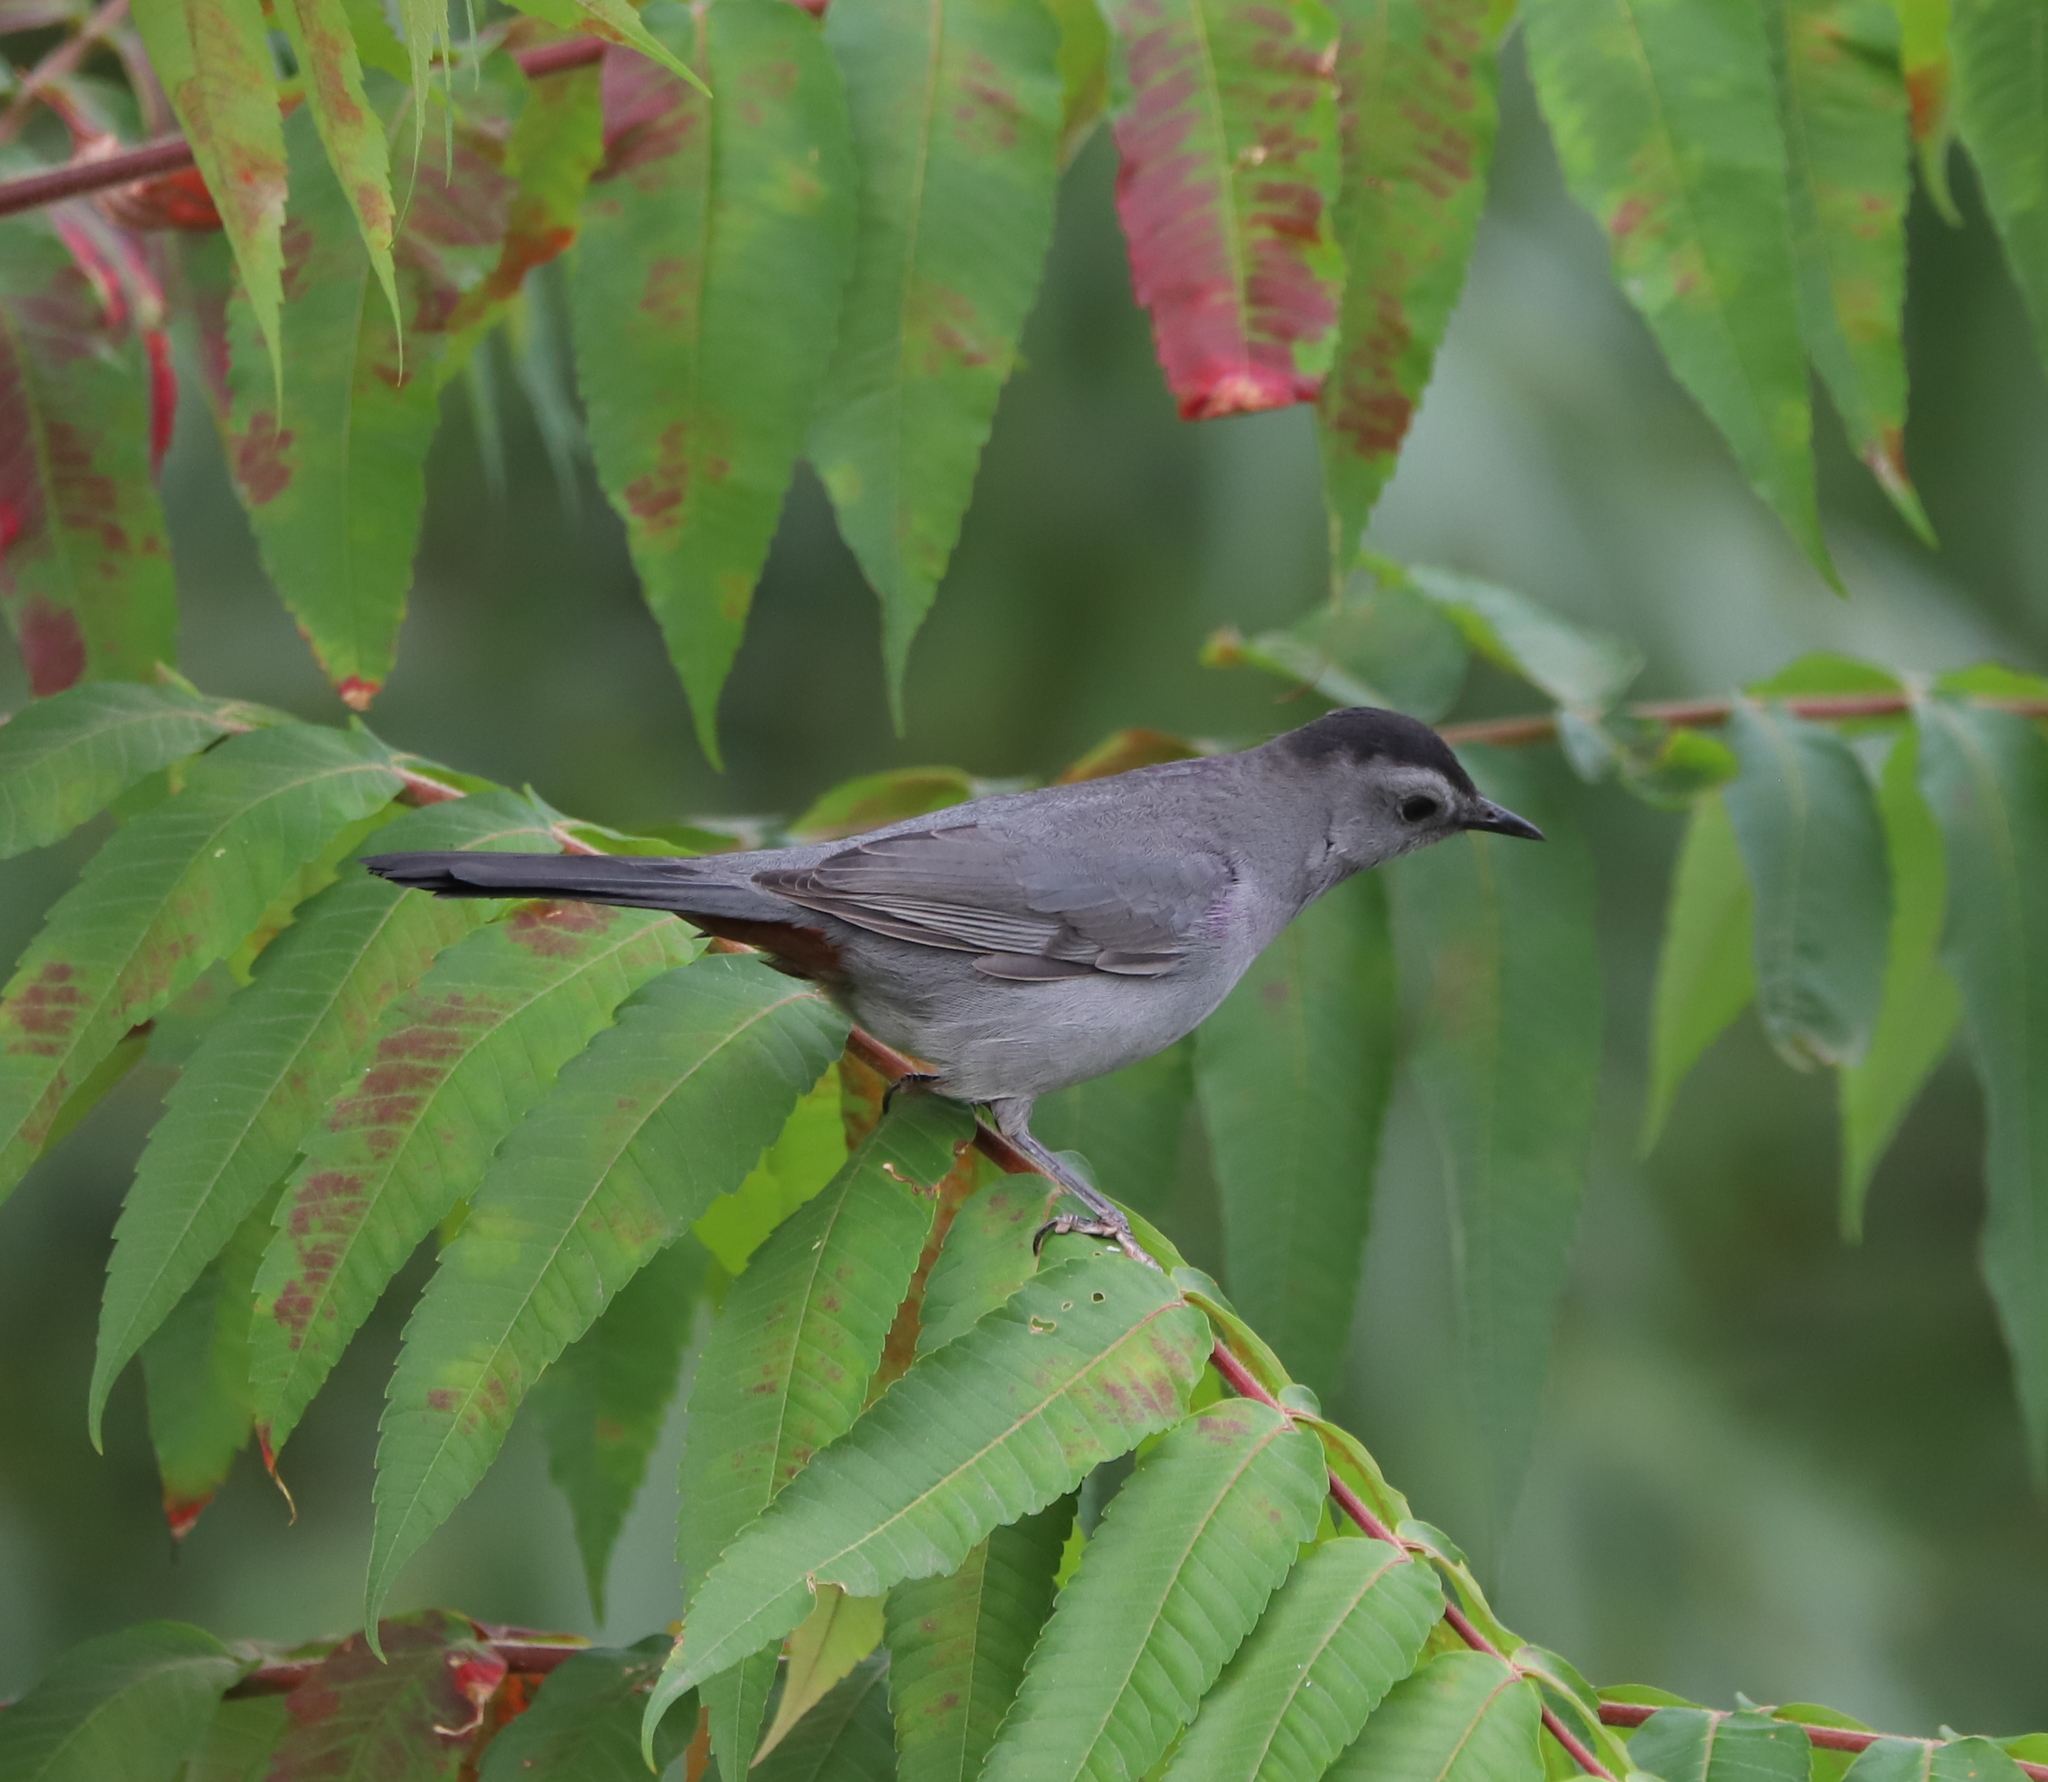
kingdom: Animalia
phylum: Chordata
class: Aves
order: Passeriformes
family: Mimidae
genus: Dumetella
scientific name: Dumetella carolinensis
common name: Gray catbird
